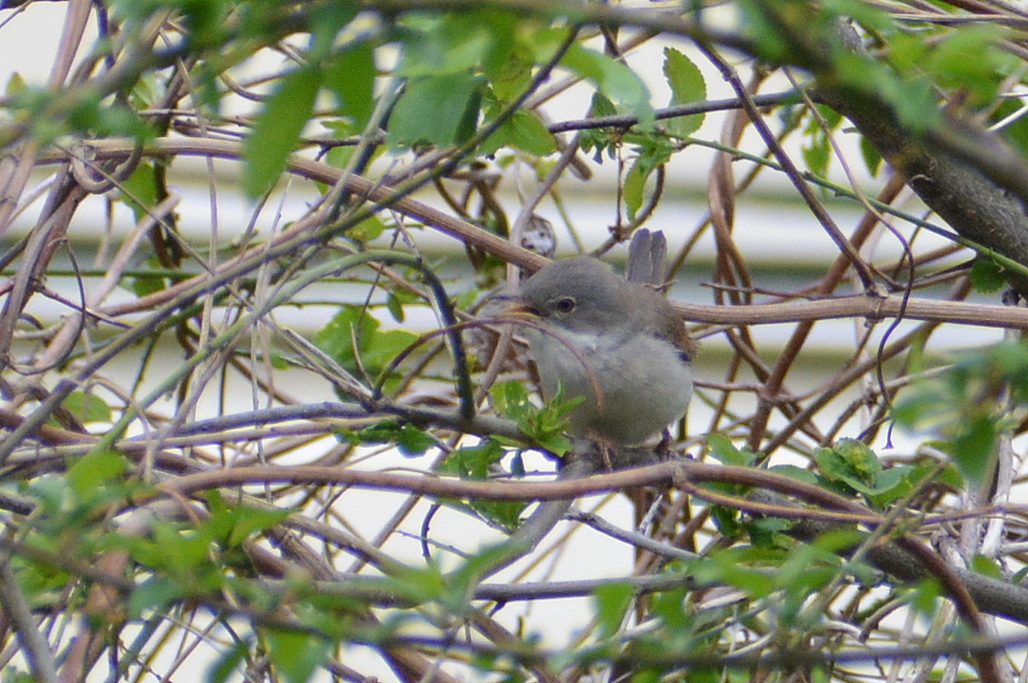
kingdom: Animalia
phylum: Chordata
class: Aves
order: Passeriformes
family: Sylviidae
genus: Sylvia
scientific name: Sylvia communis
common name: Common whitethroat
